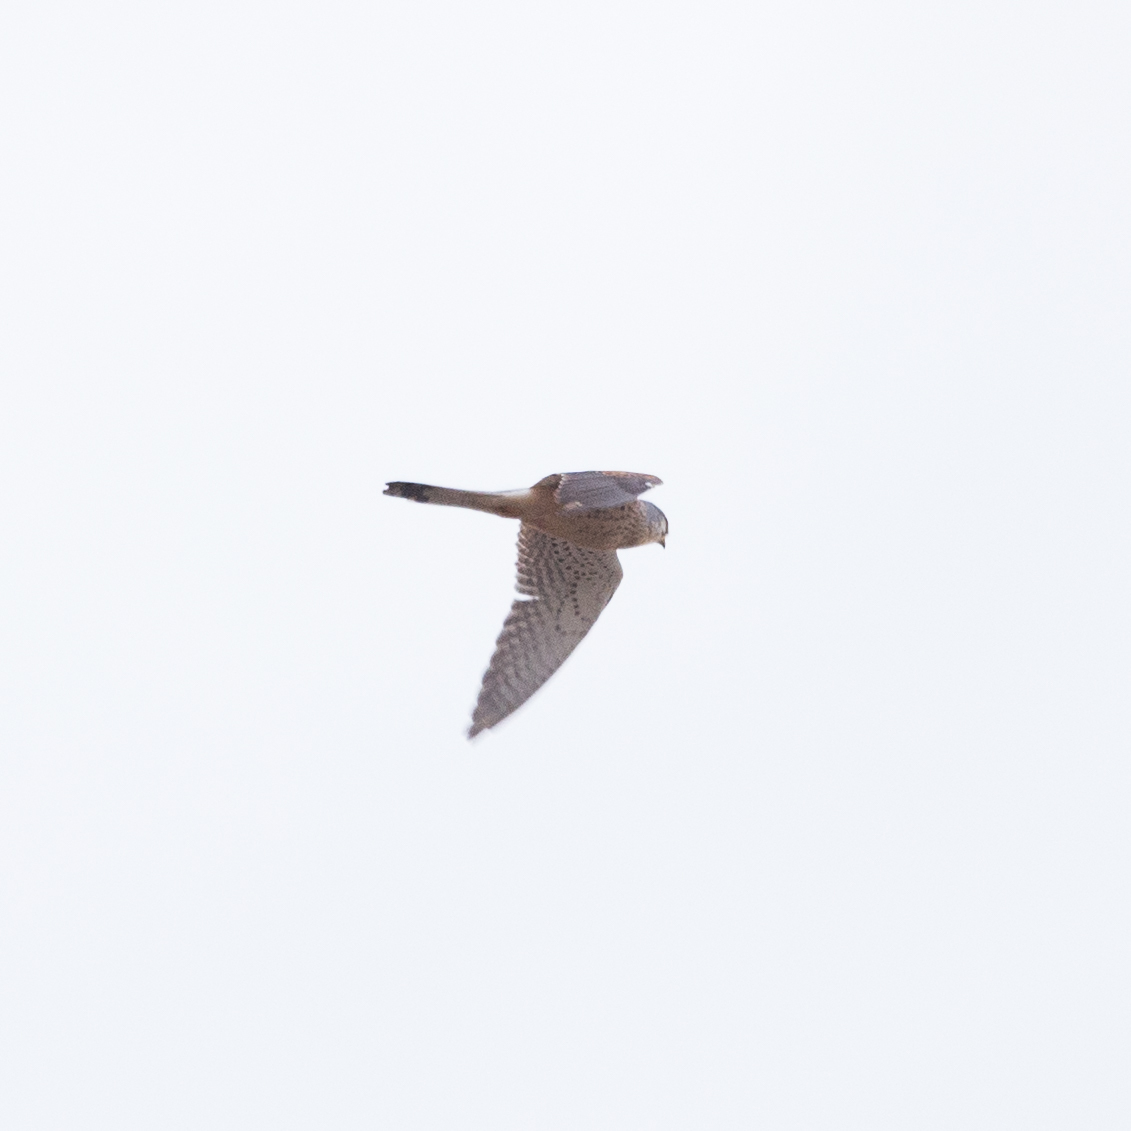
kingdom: Animalia
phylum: Chordata
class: Aves
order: Falconiformes
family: Falconidae
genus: Falco
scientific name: Falco tinnunculus
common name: Common kestrel
